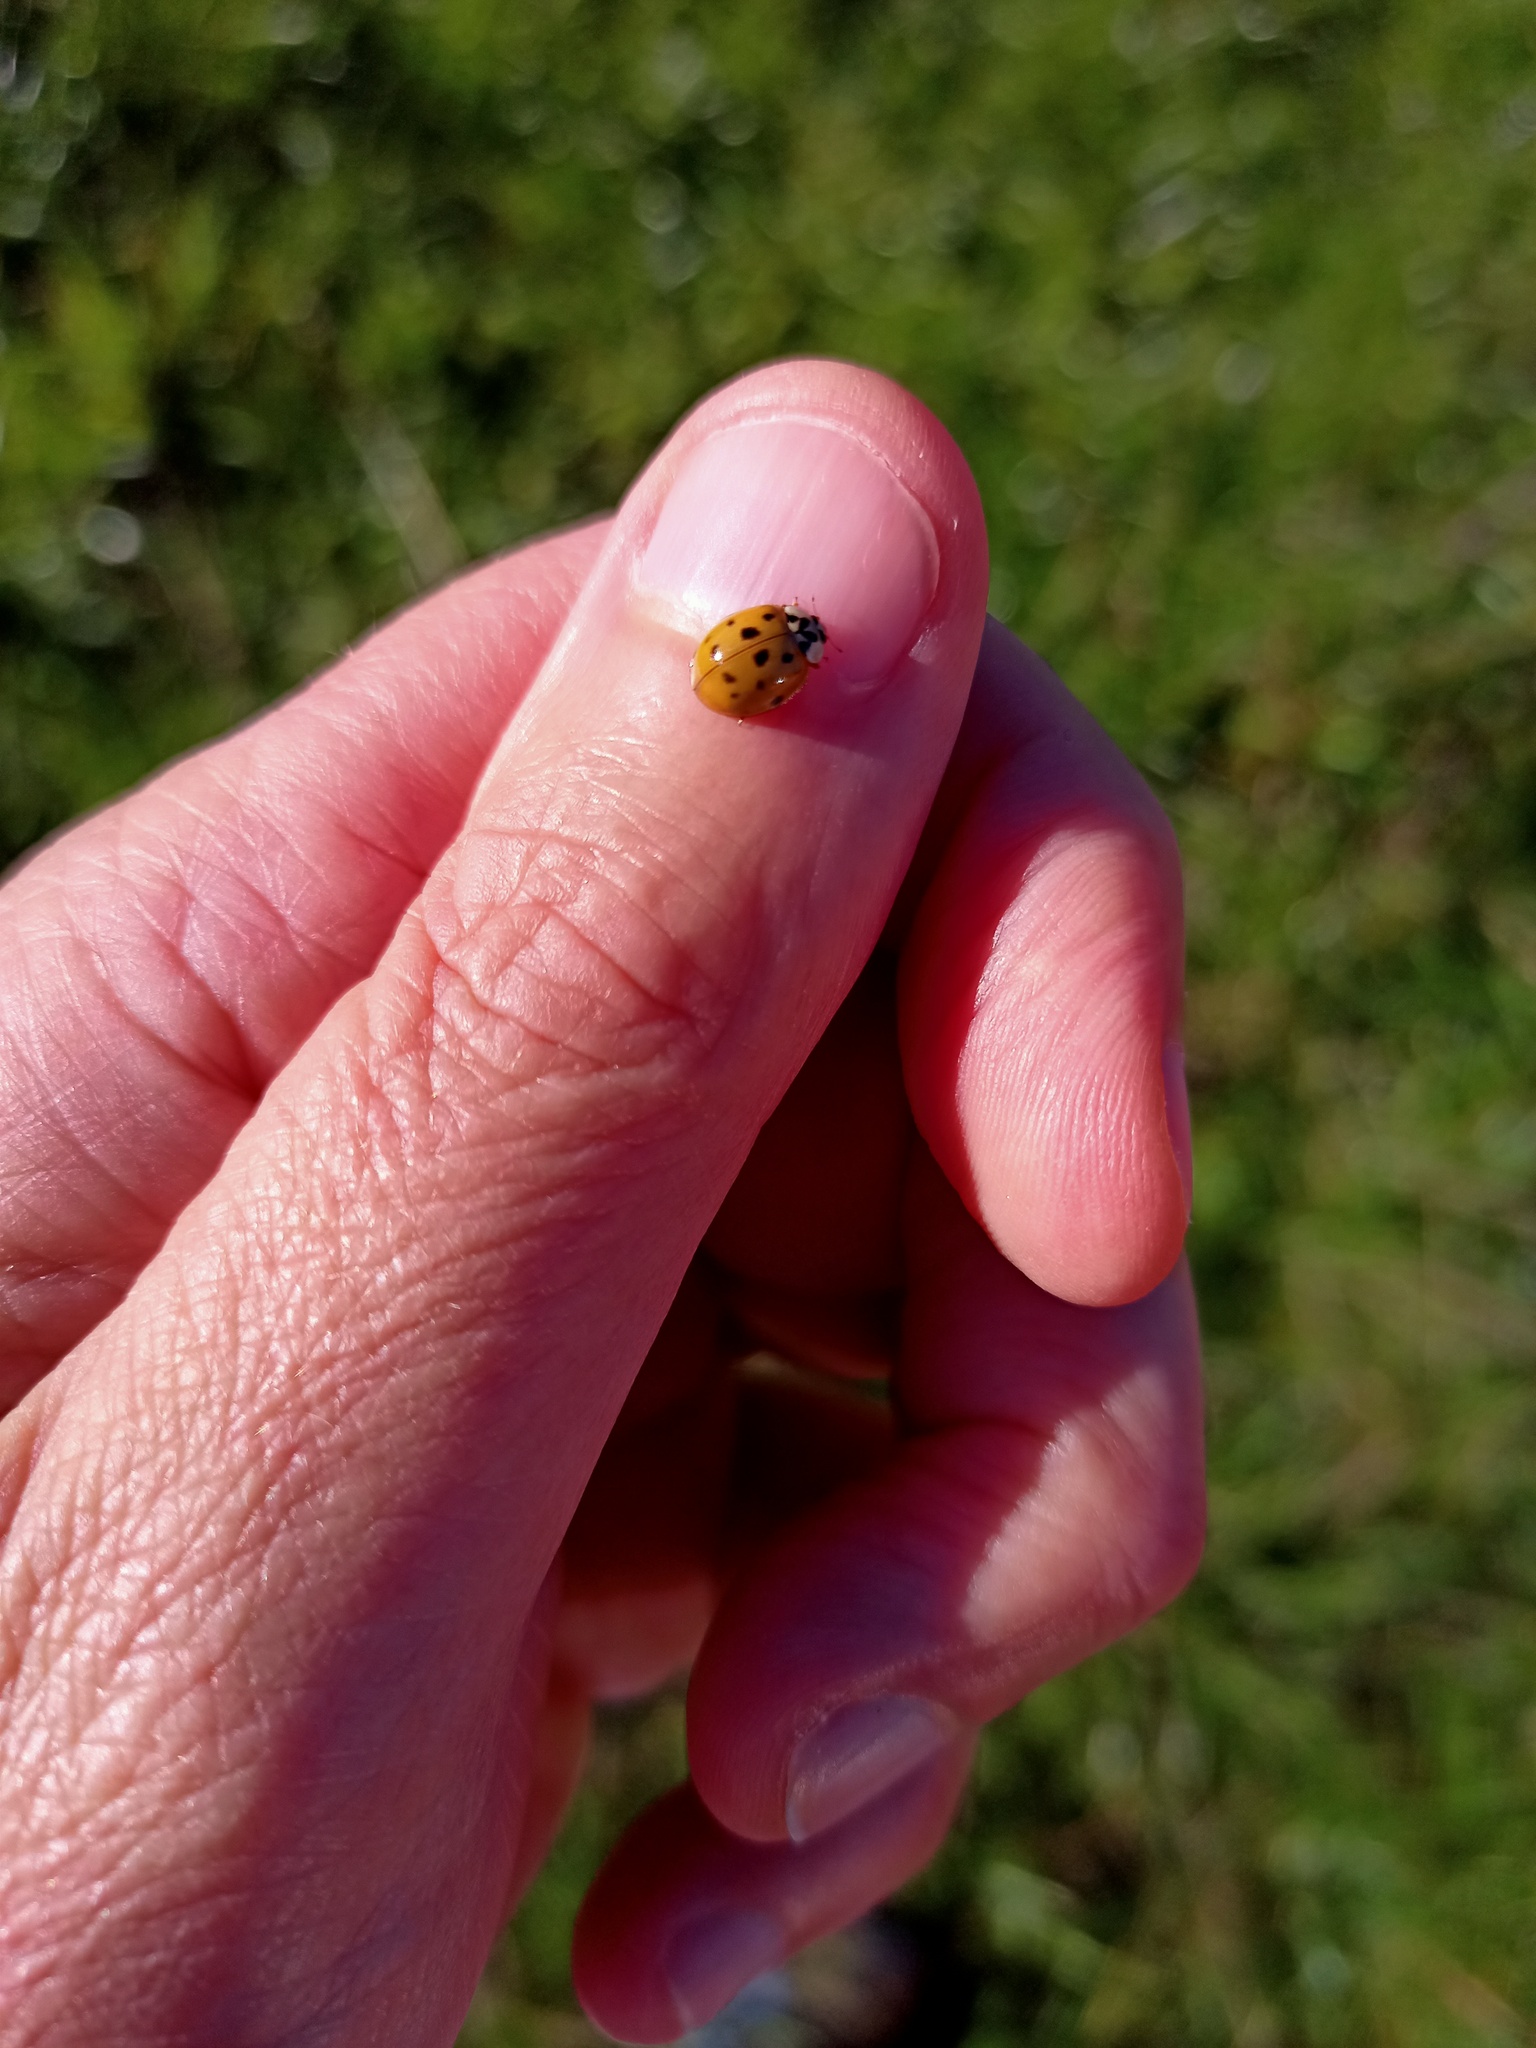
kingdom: Animalia
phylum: Arthropoda
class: Insecta
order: Coleoptera
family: Coccinellidae
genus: Harmonia
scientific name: Harmonia axyridis
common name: Harlequin ladybird
